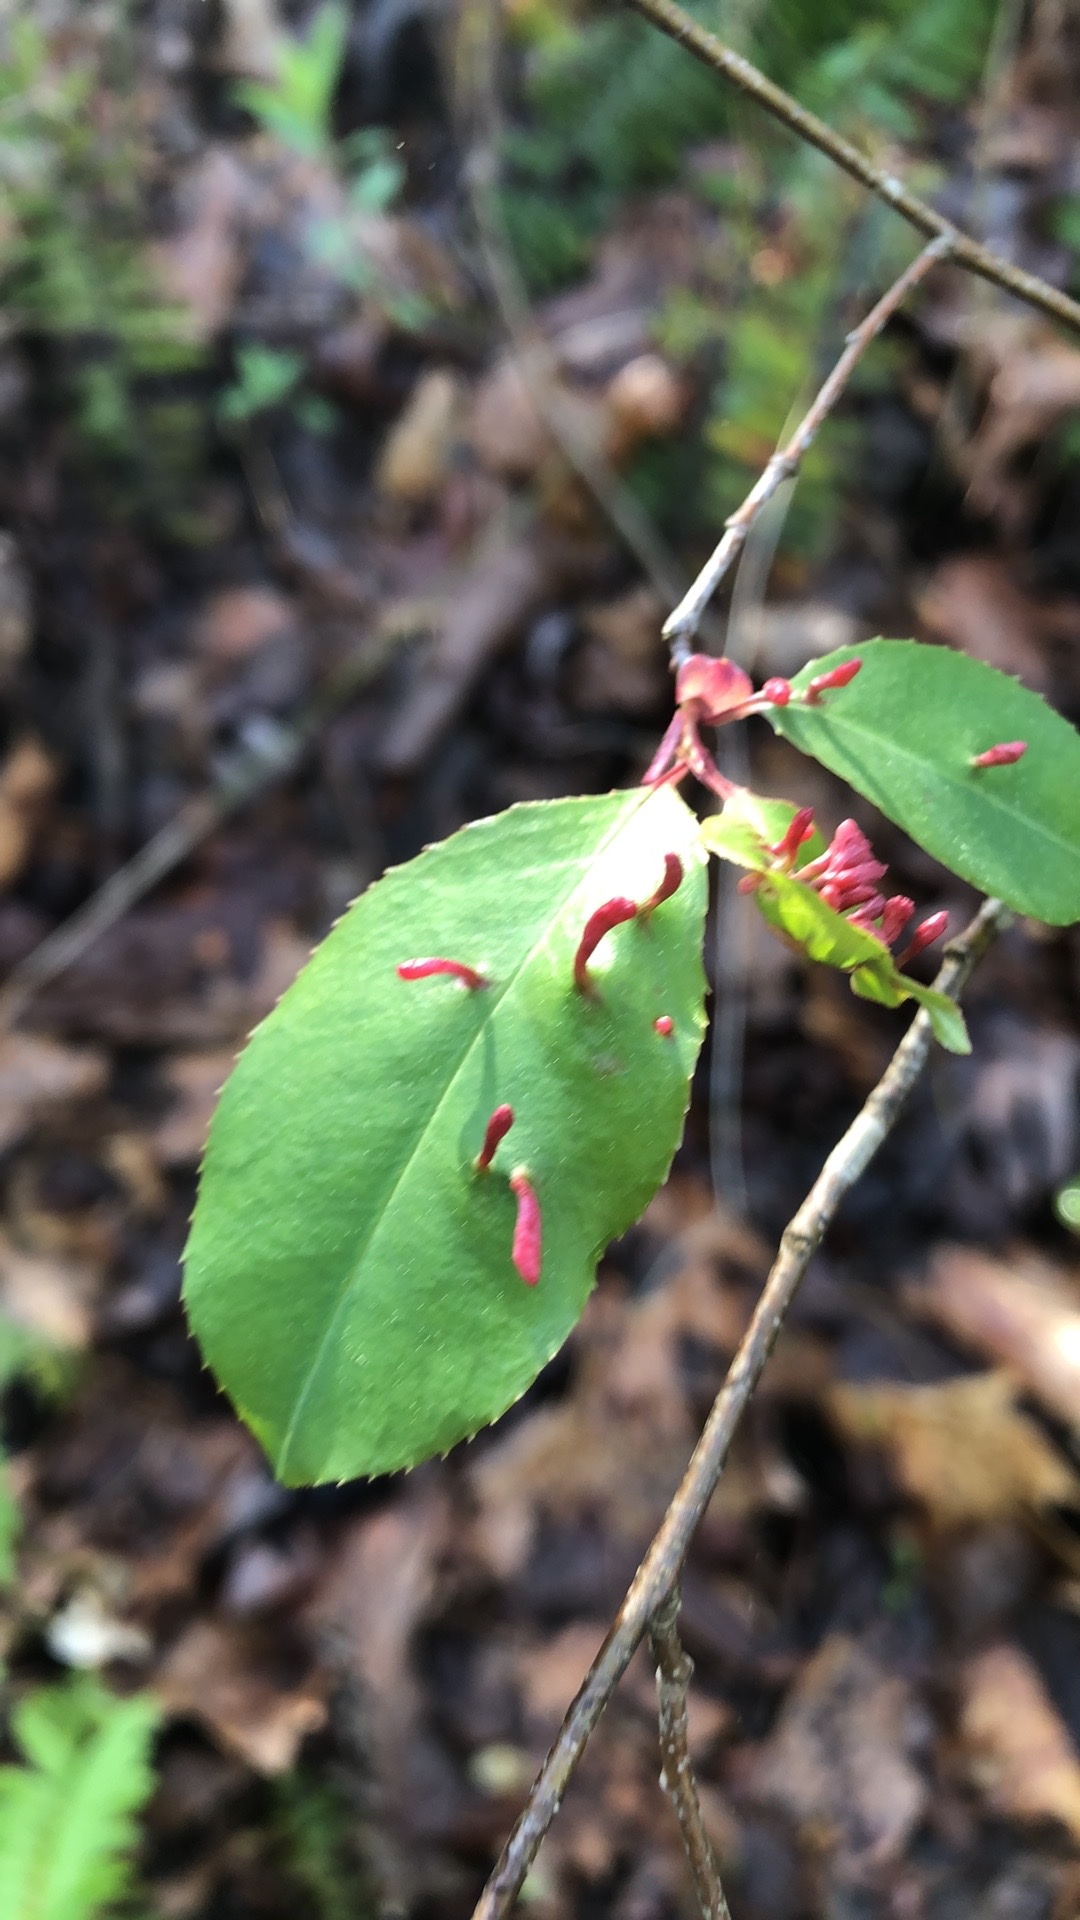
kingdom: Animalia
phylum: Arthropoda
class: Arachnida
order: Trombidiformes
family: Eriophyidae
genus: Eriophyes
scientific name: Eriophyes
